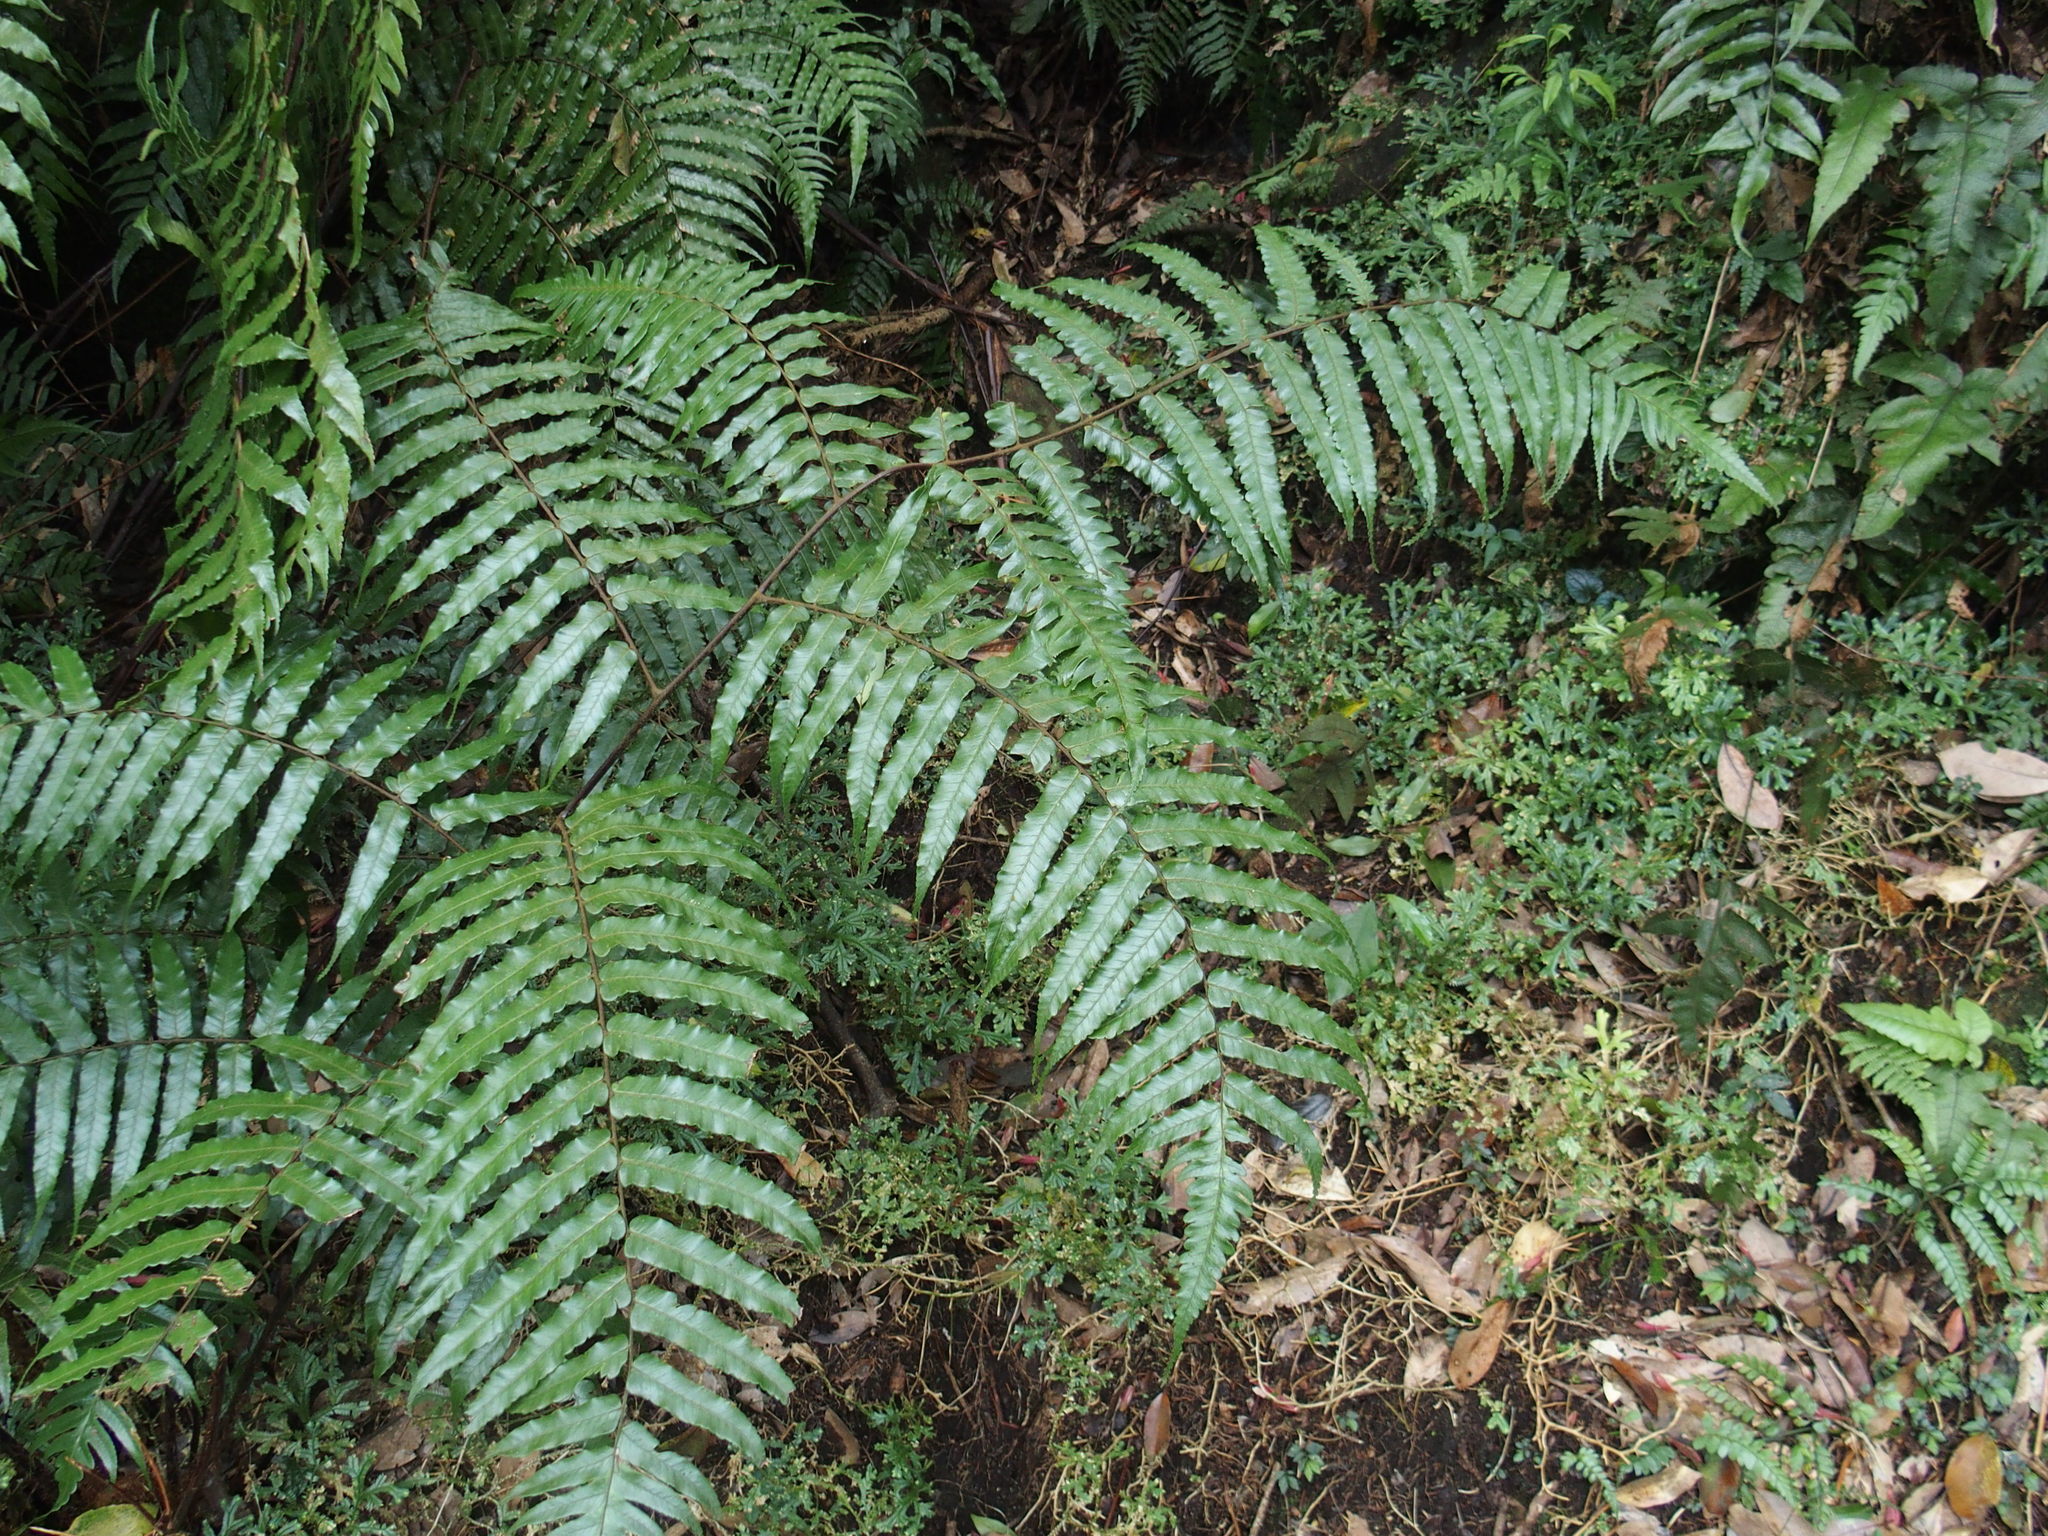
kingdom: Plantae
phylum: Tracheophyta
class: Polypodiopsida
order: Cyatheales
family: Cyatheaceae
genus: Gymnosphaera
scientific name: Gymnosphaera podophylla
